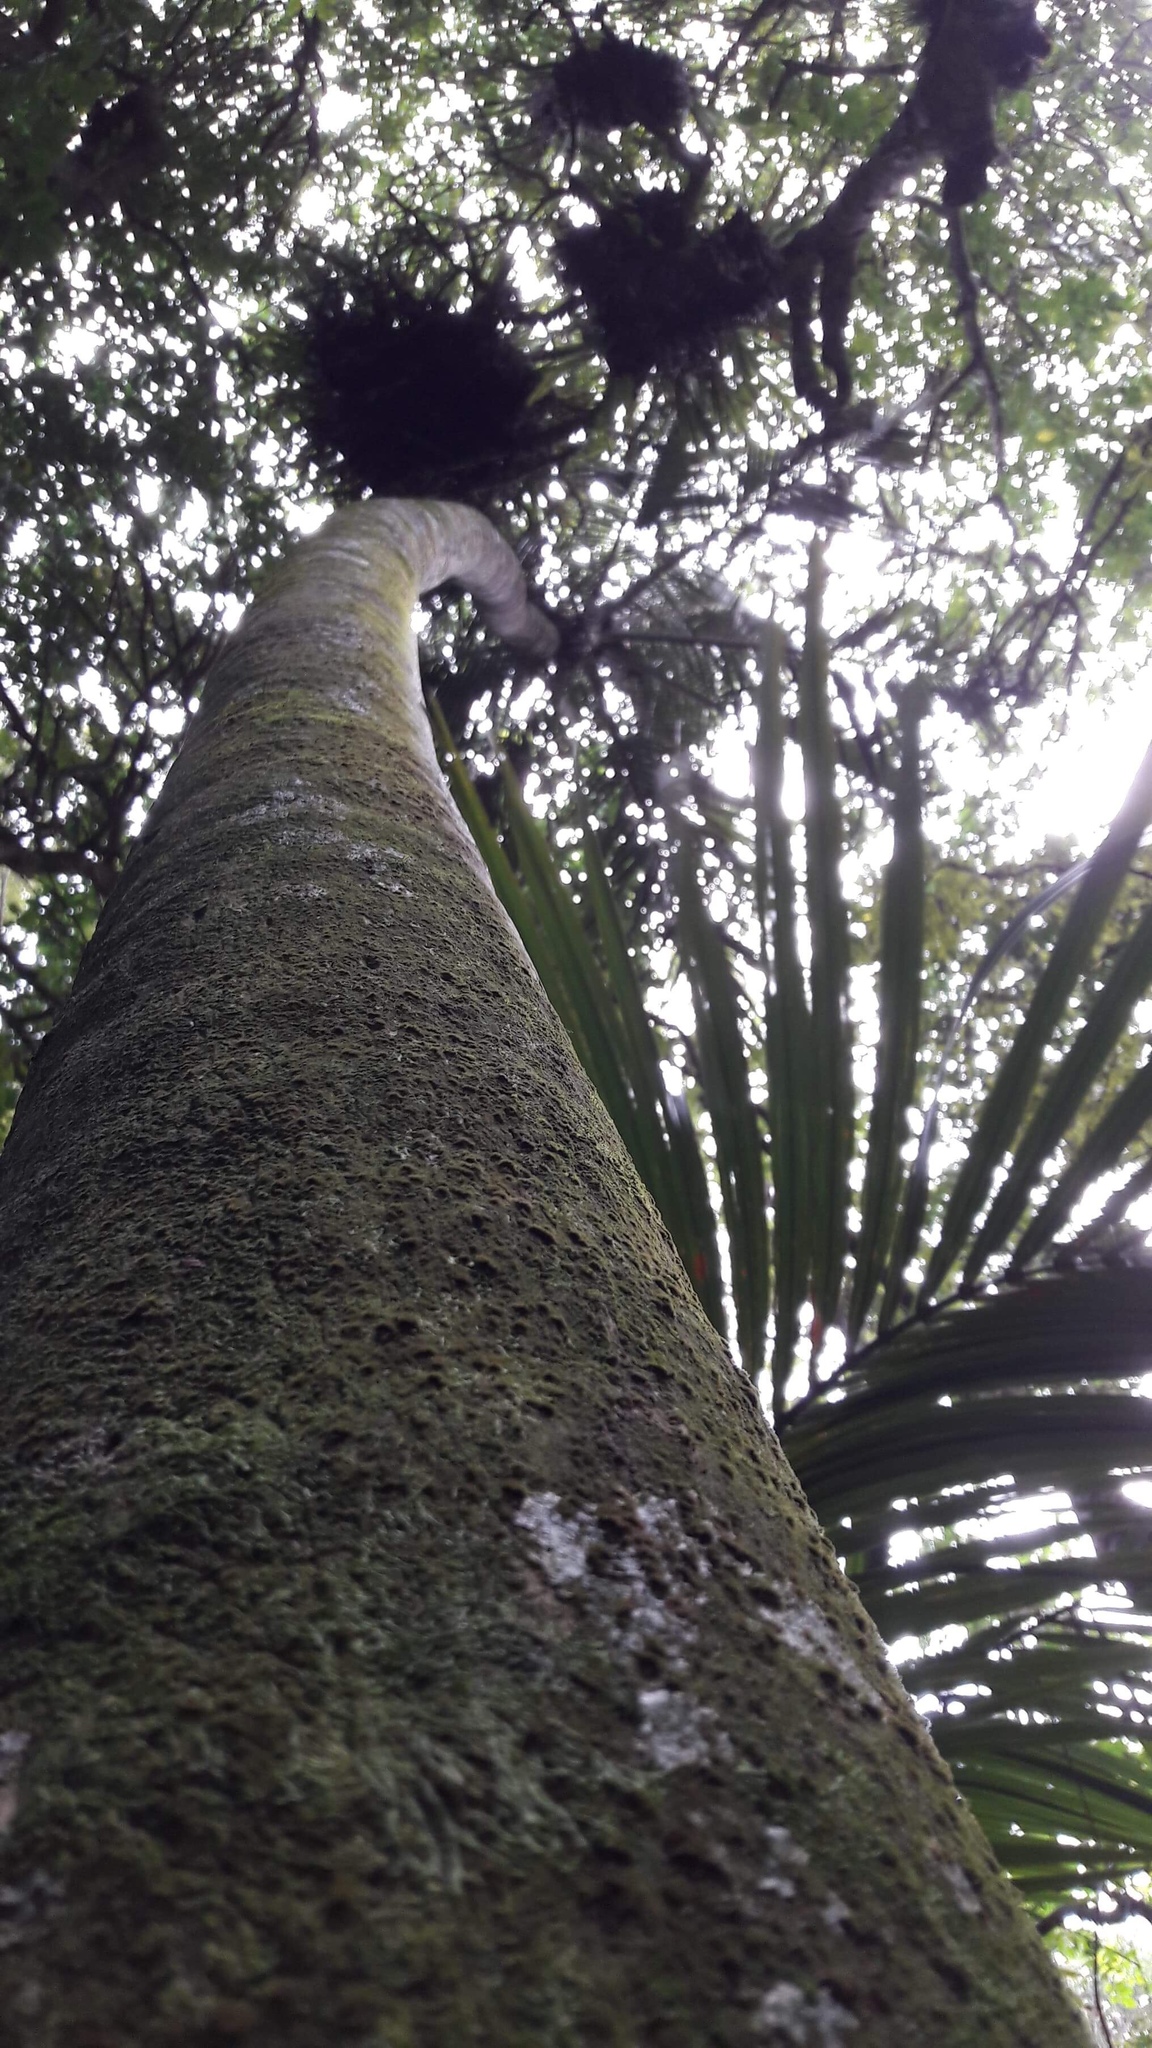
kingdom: Plantae
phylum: Tracheophyta
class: Liliopsida
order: Arecales
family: Arecaceae
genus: Rhopalostylis
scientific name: Rhopalostylis sapida
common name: Feather-duster palm
